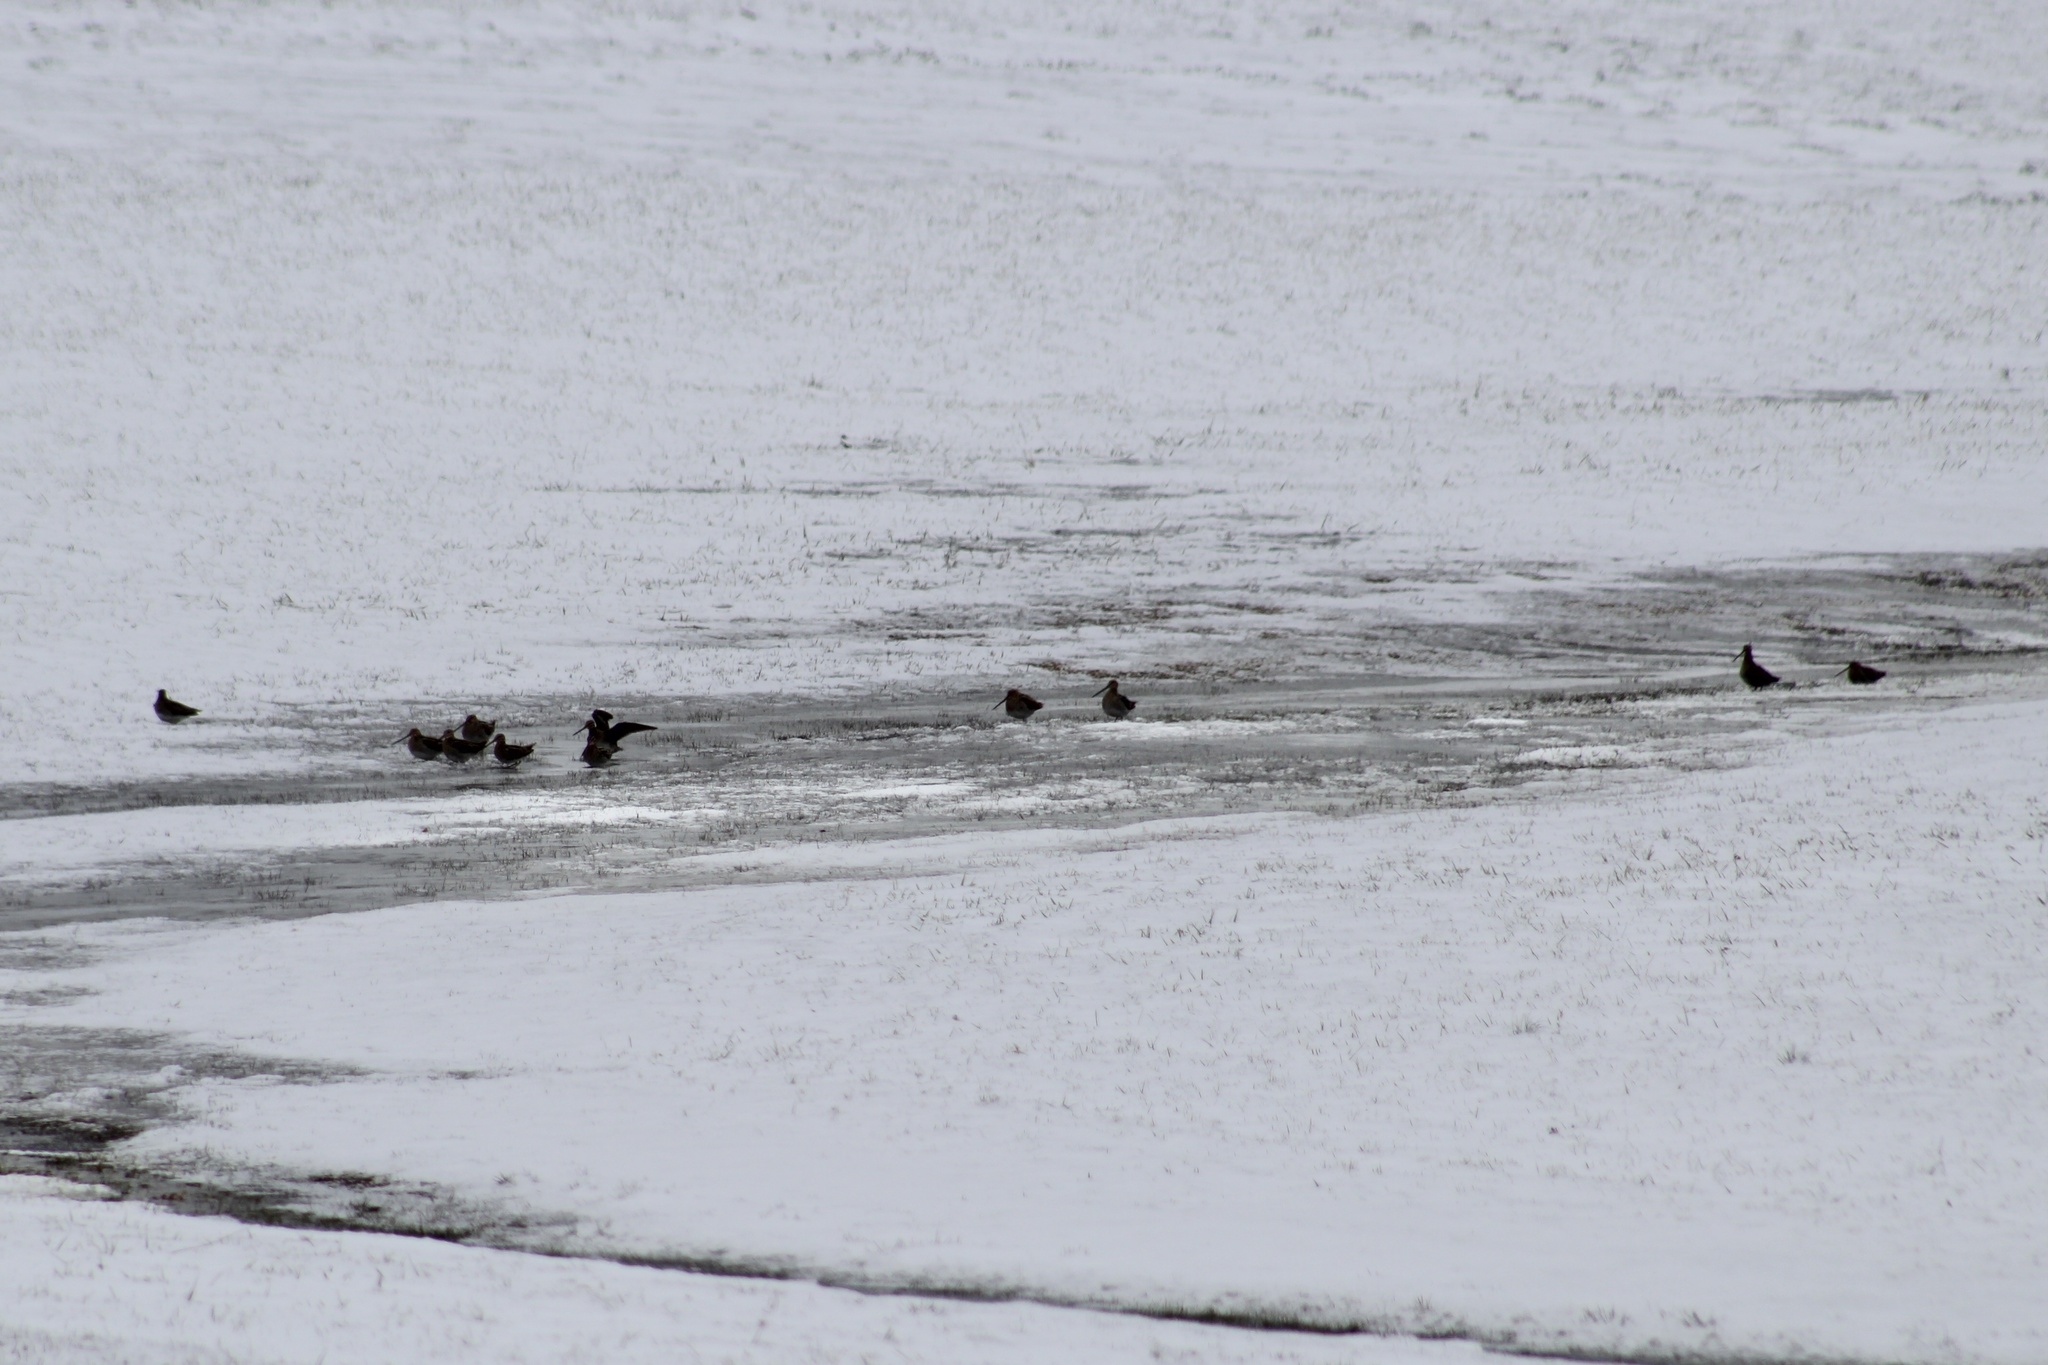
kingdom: Animalia
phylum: Chordata
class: Aves
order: Charadriiformes
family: Scolopacidae
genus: Gallinago
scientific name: Gallinago delicata
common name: Wilson's snipe
